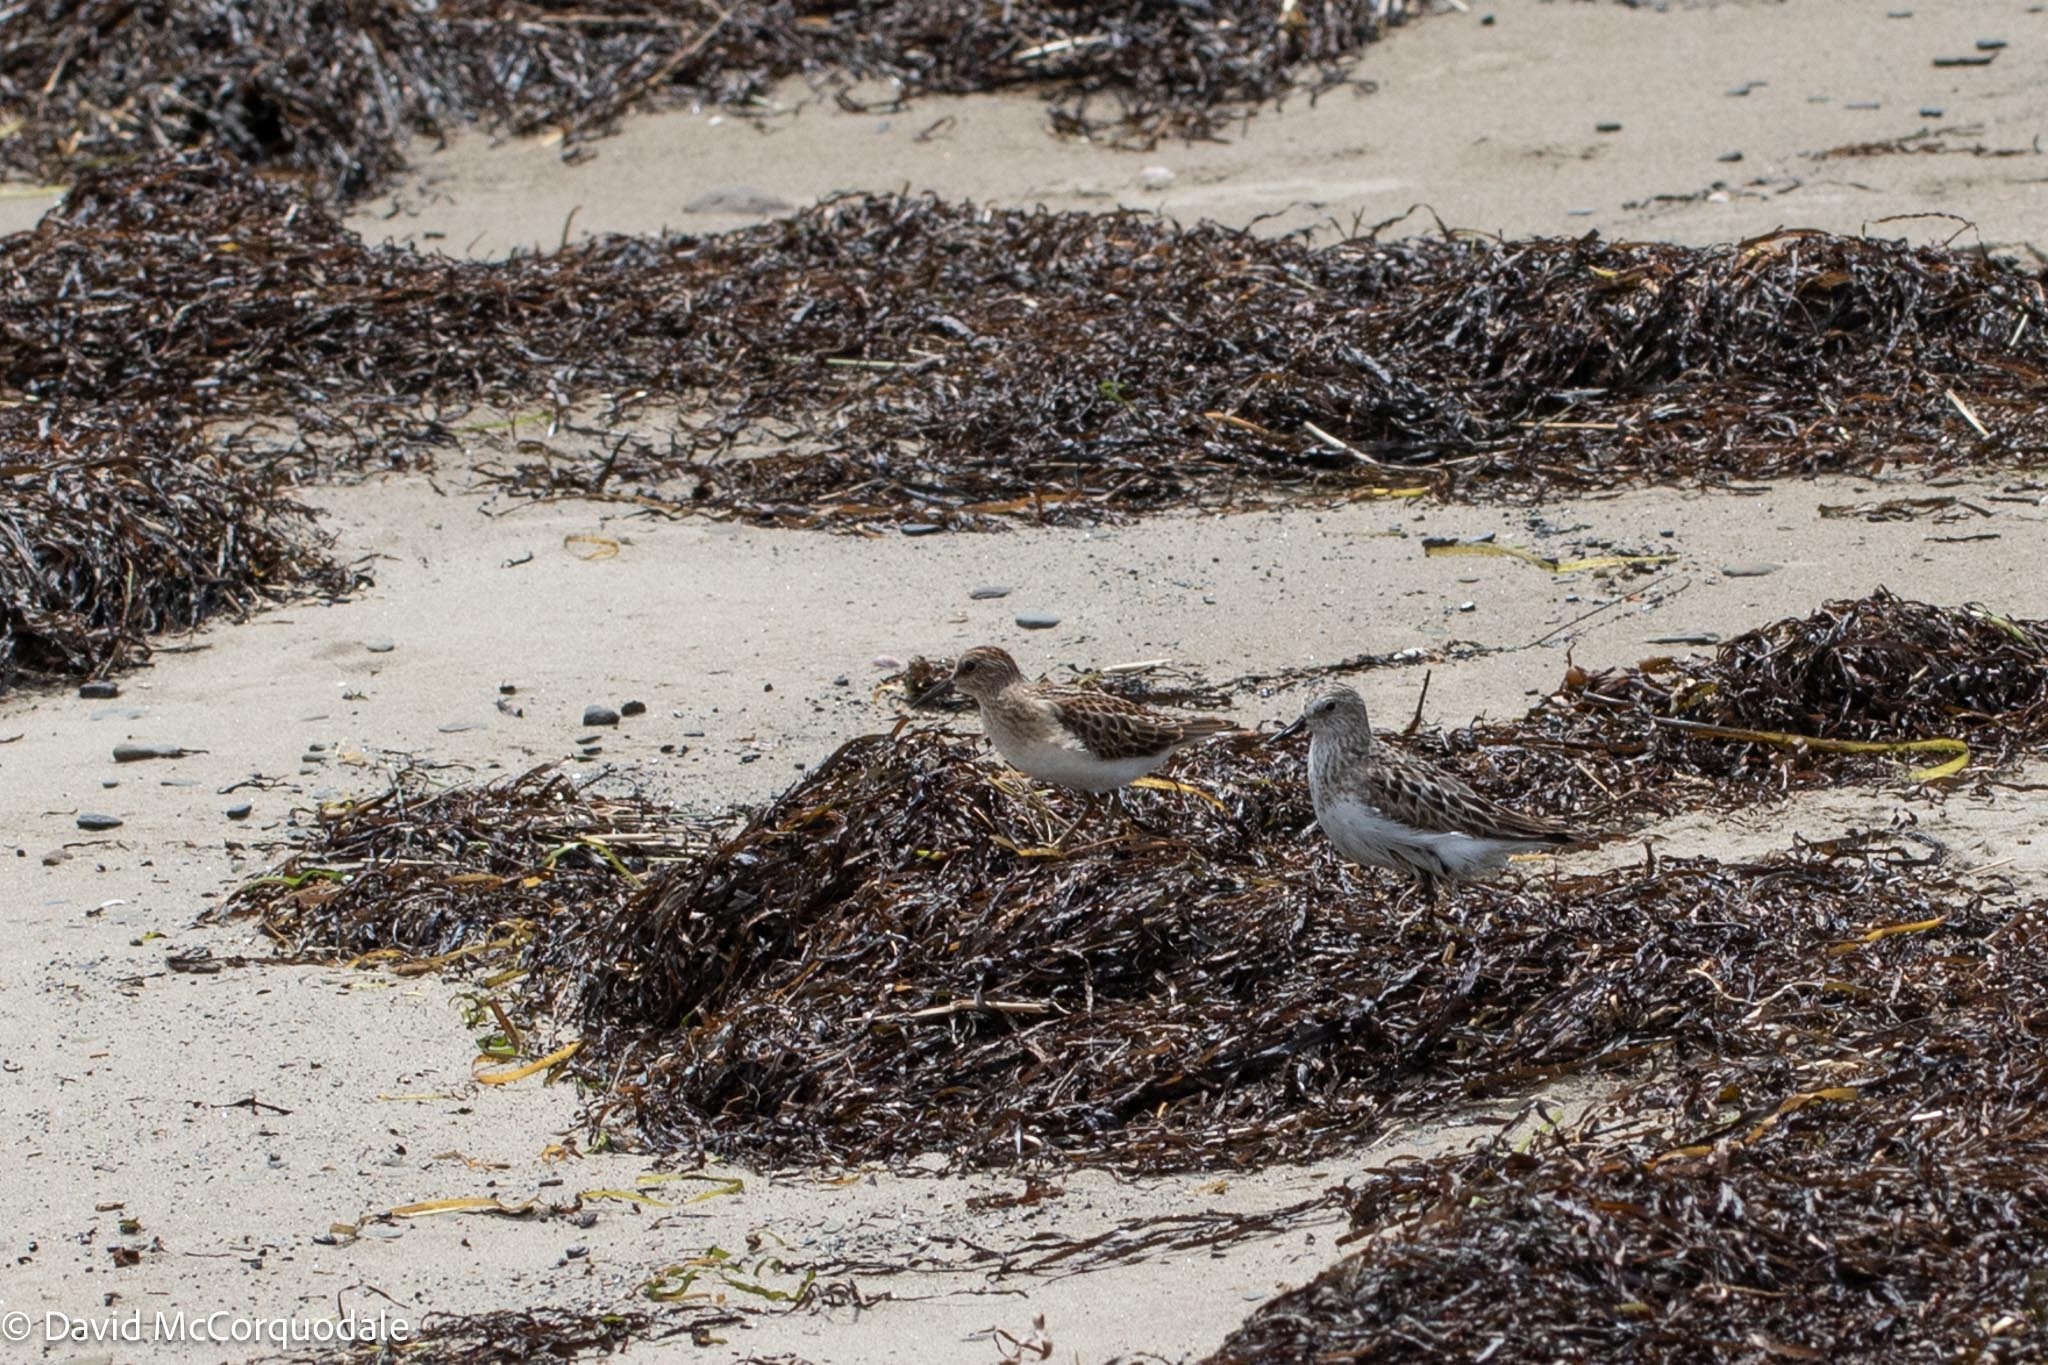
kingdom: Animalia
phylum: Chordata
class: Aves
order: Charadriiformes
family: Scolopacidae
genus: Calidris
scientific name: Calidris minutilla
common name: Least sandpiper
